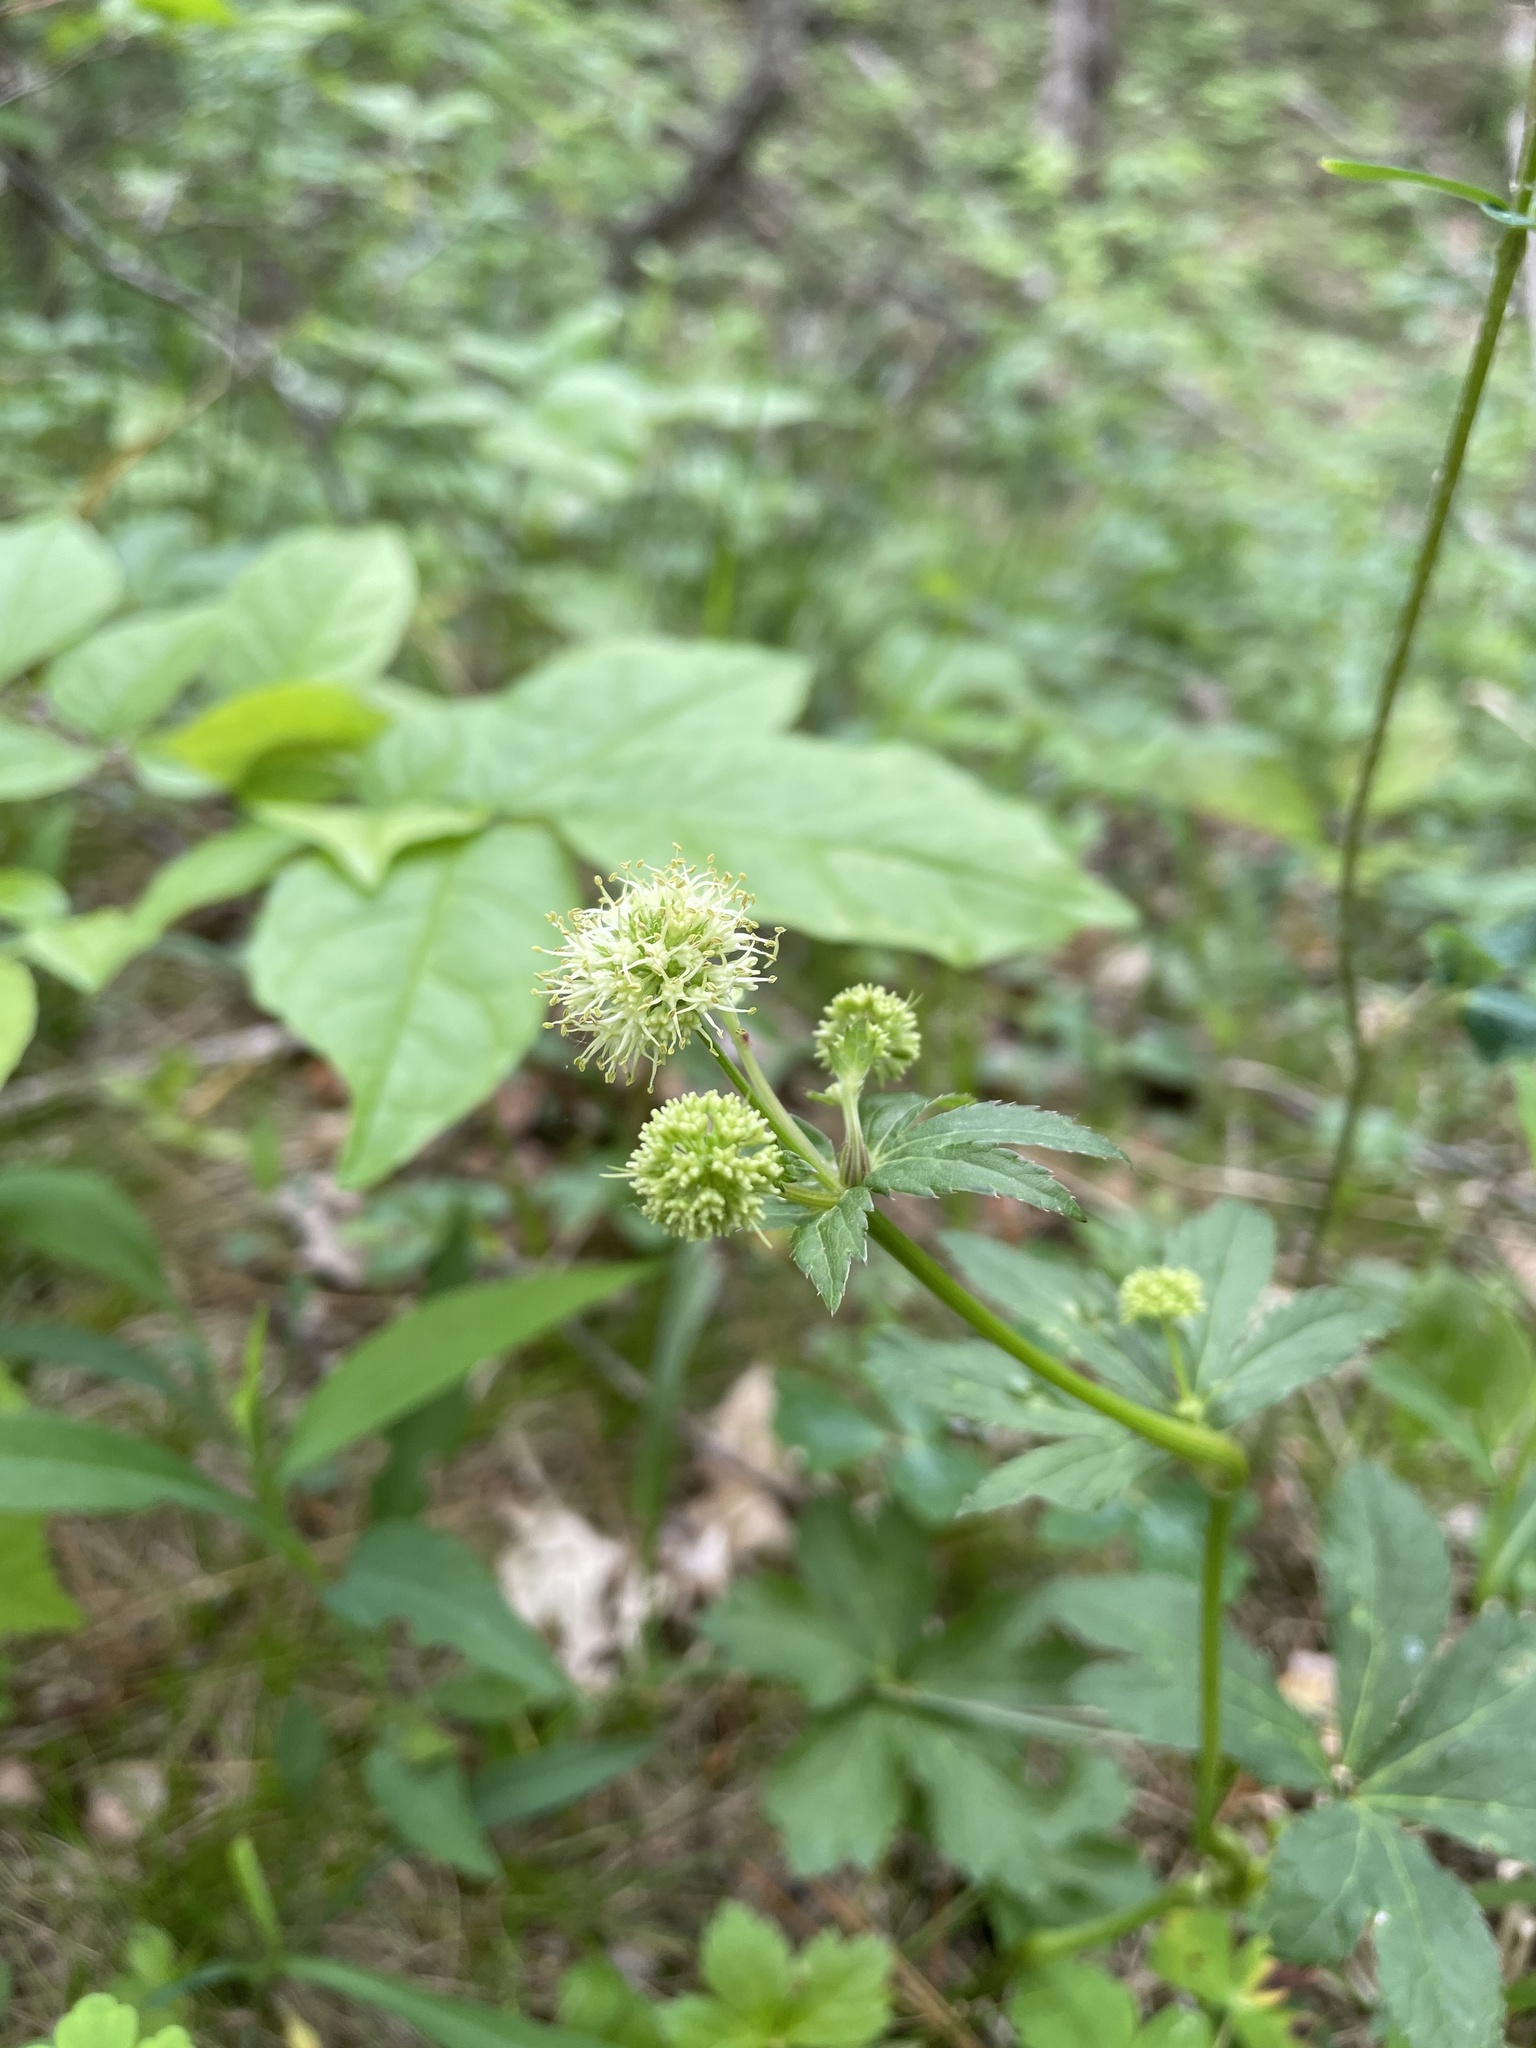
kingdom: Plantae
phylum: Tracheophyta
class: Magnoliopsida
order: Apiales
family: Apiaceae
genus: Sanicula
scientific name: Sanicula marilandica
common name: Black snakeroot
